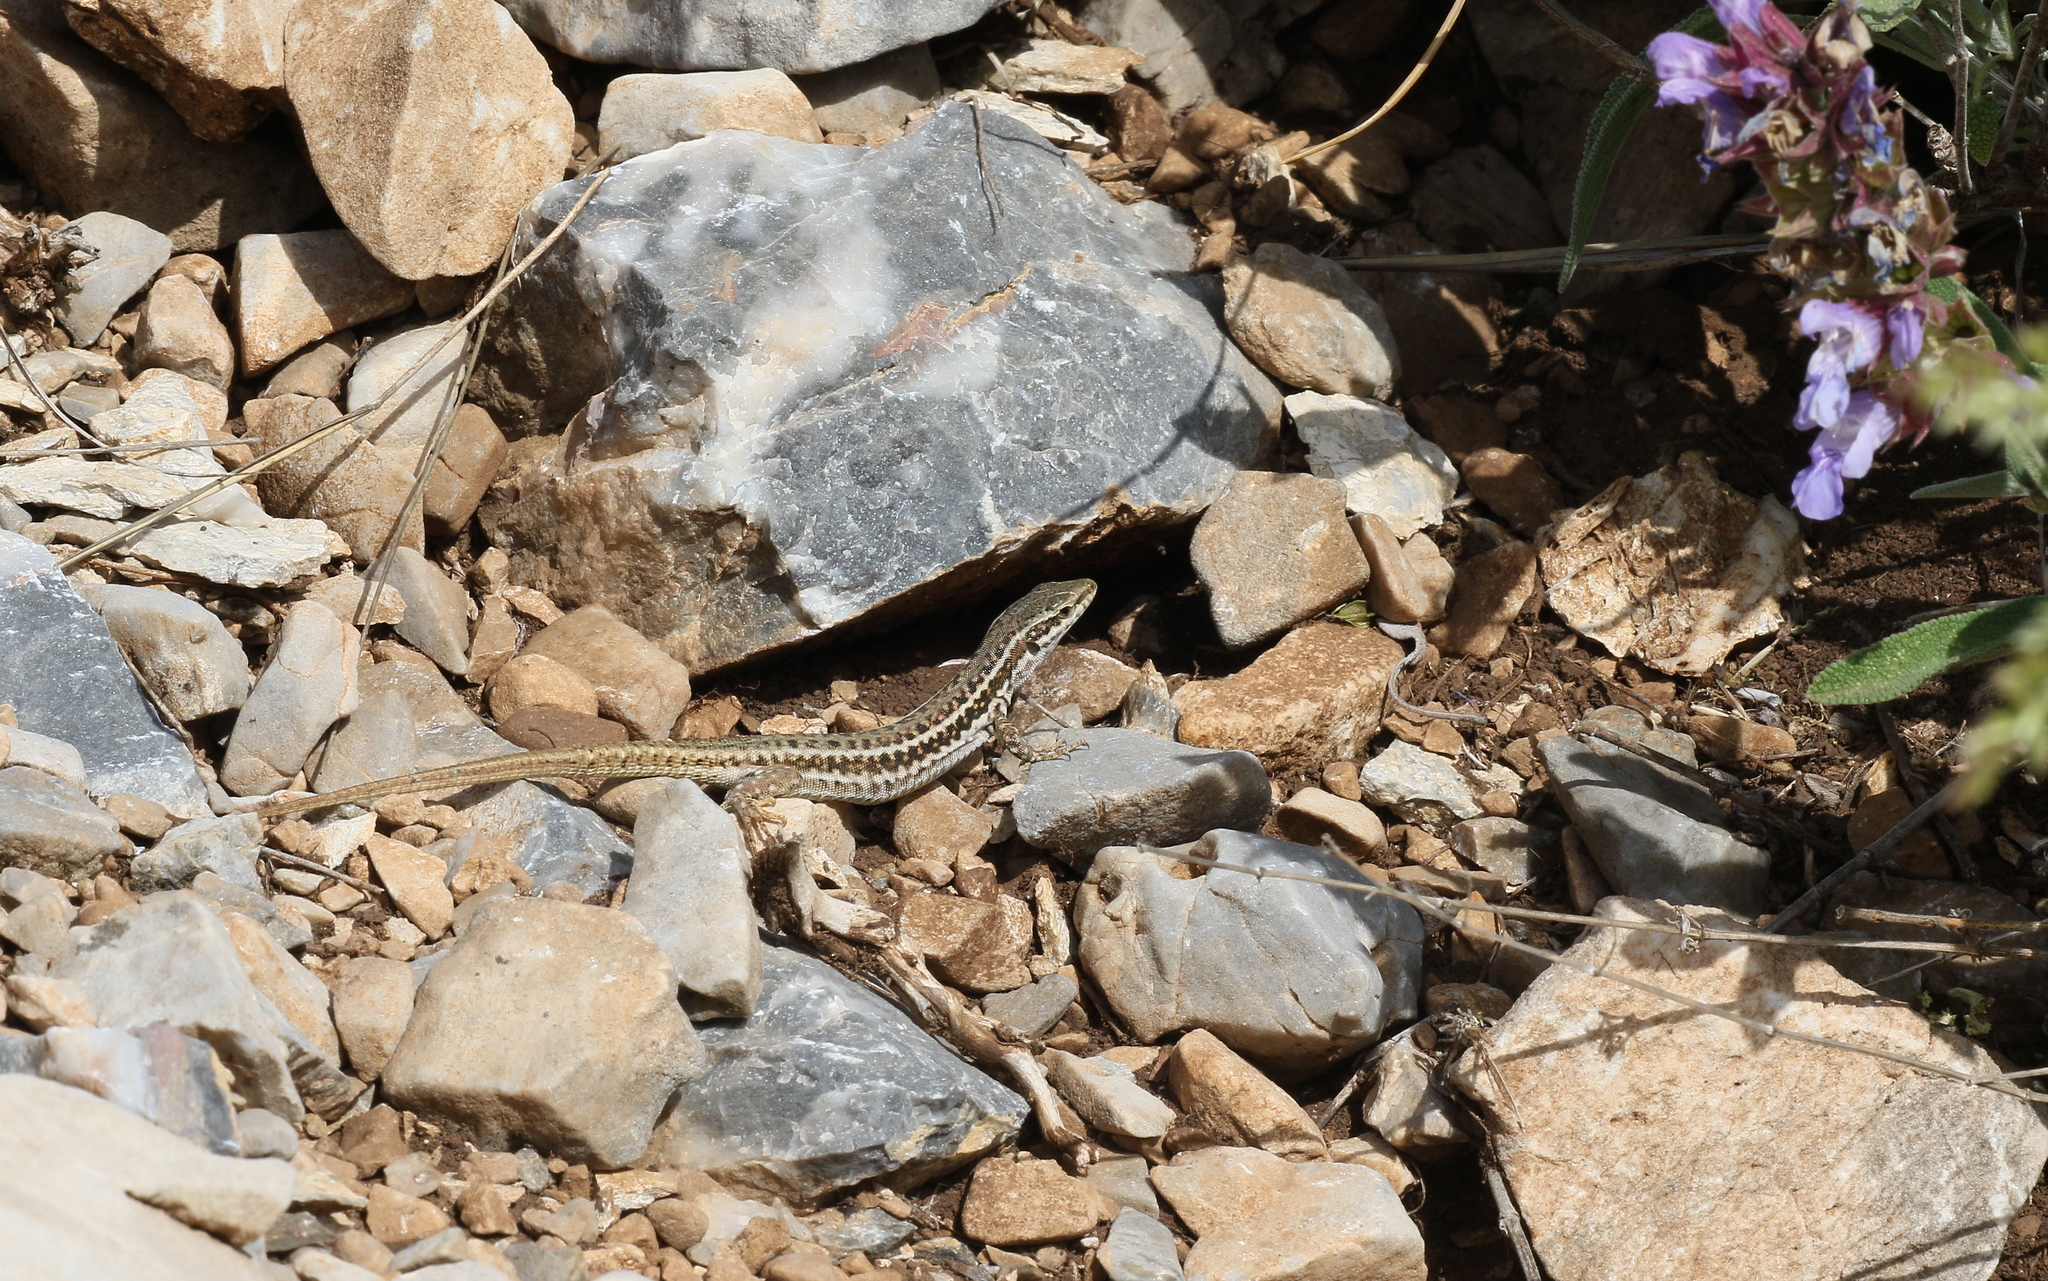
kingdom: Animalia
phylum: Chordata
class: Squamata
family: Lacertidae
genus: Podarcis
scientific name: Podarcis muralis
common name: Common wall lizard
